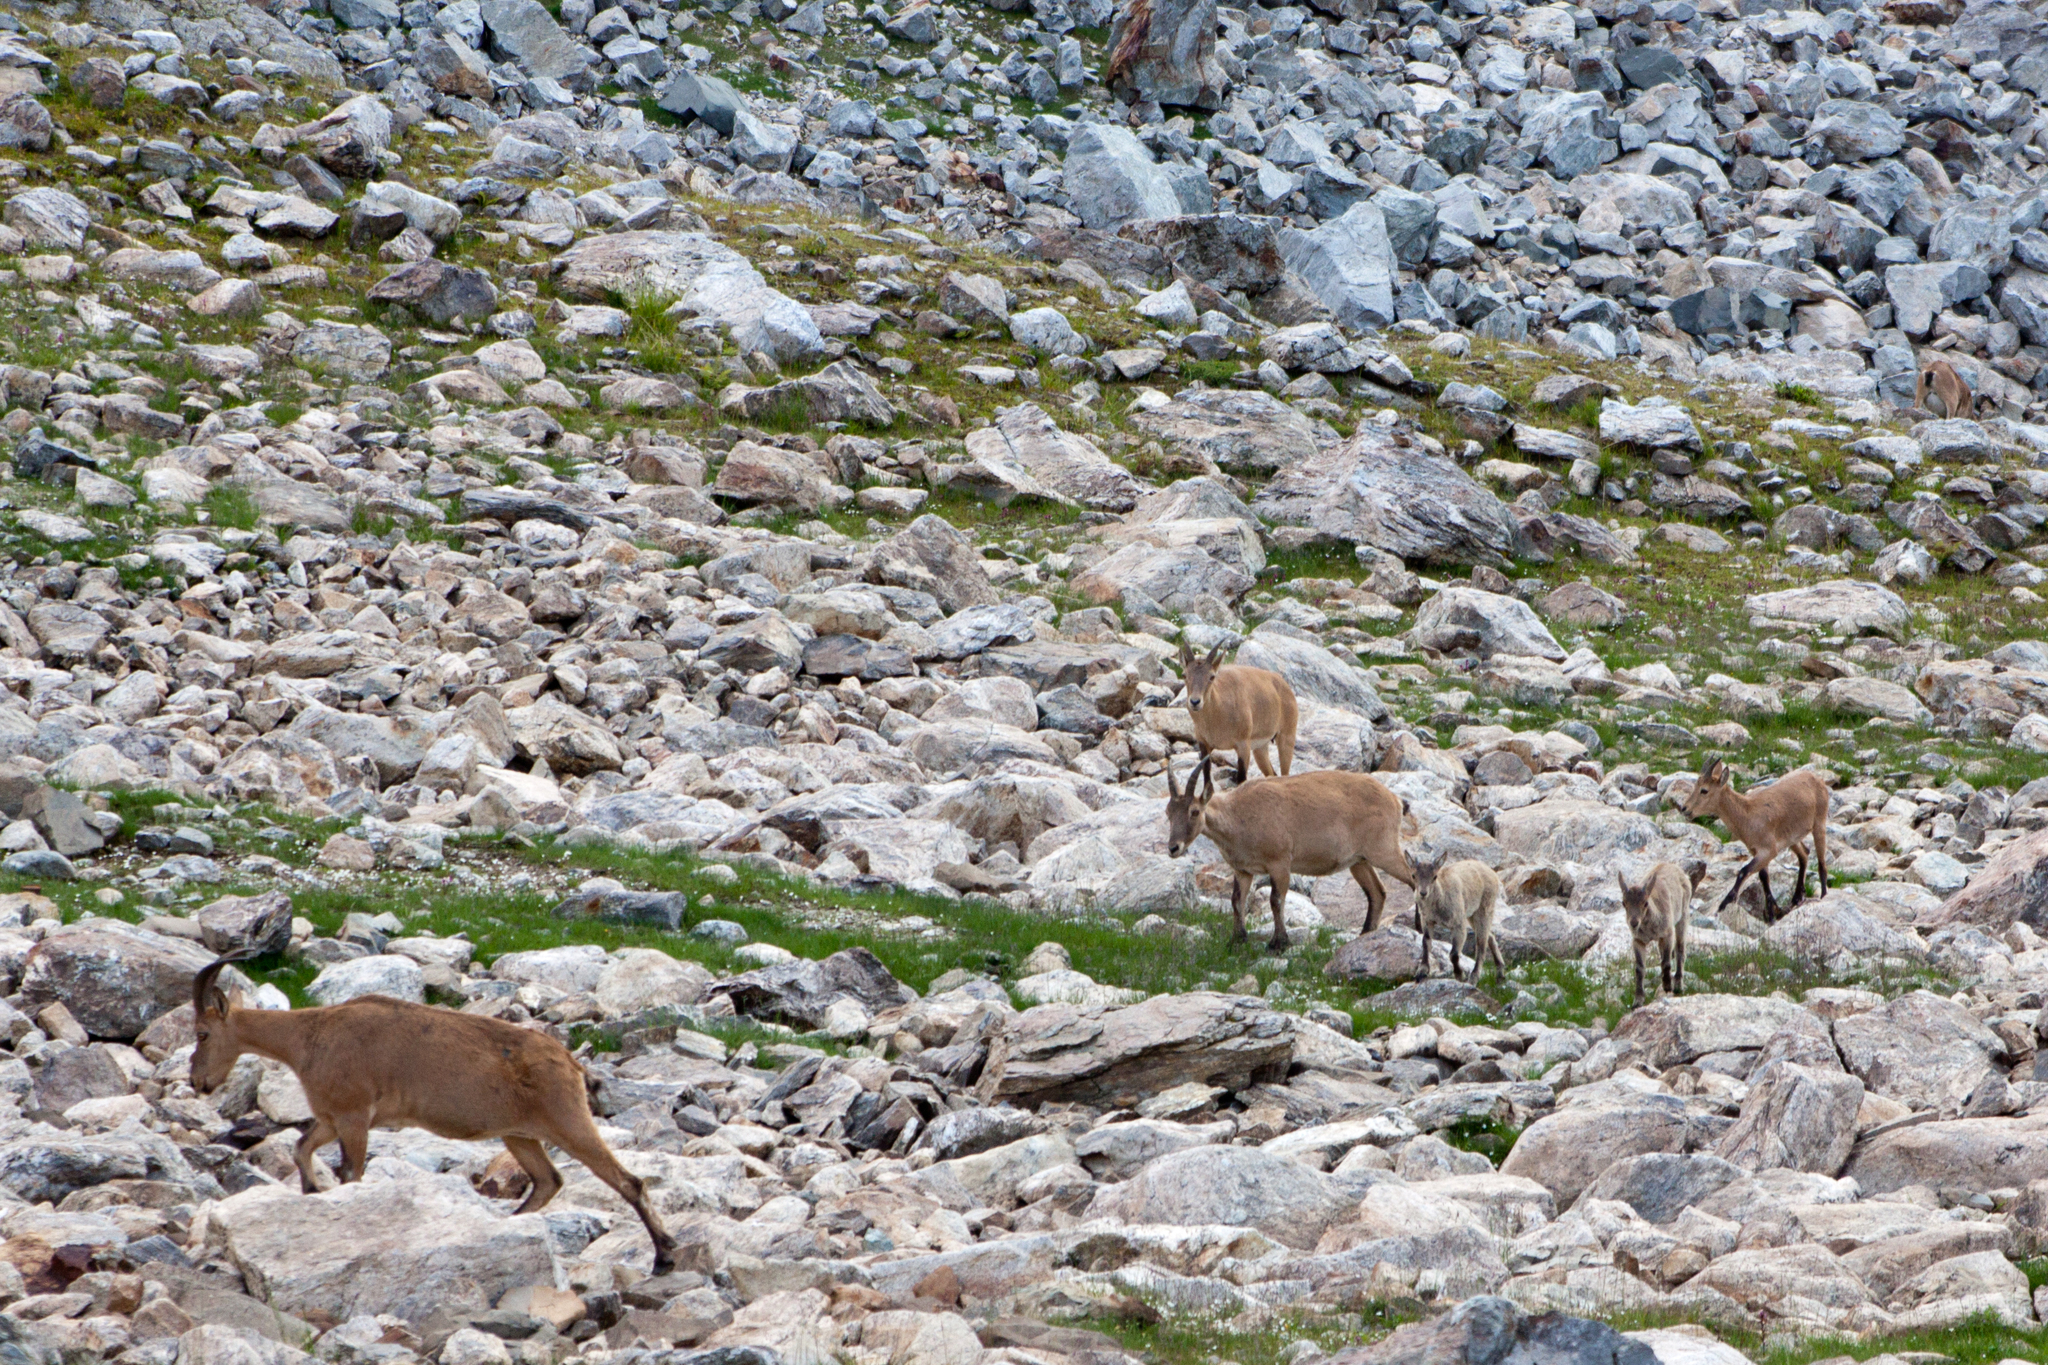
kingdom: Animalia
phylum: Chordata
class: Mammalia
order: Artiodactyla
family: Bovidae
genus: Capra
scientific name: Capra caucasica
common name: Tur
